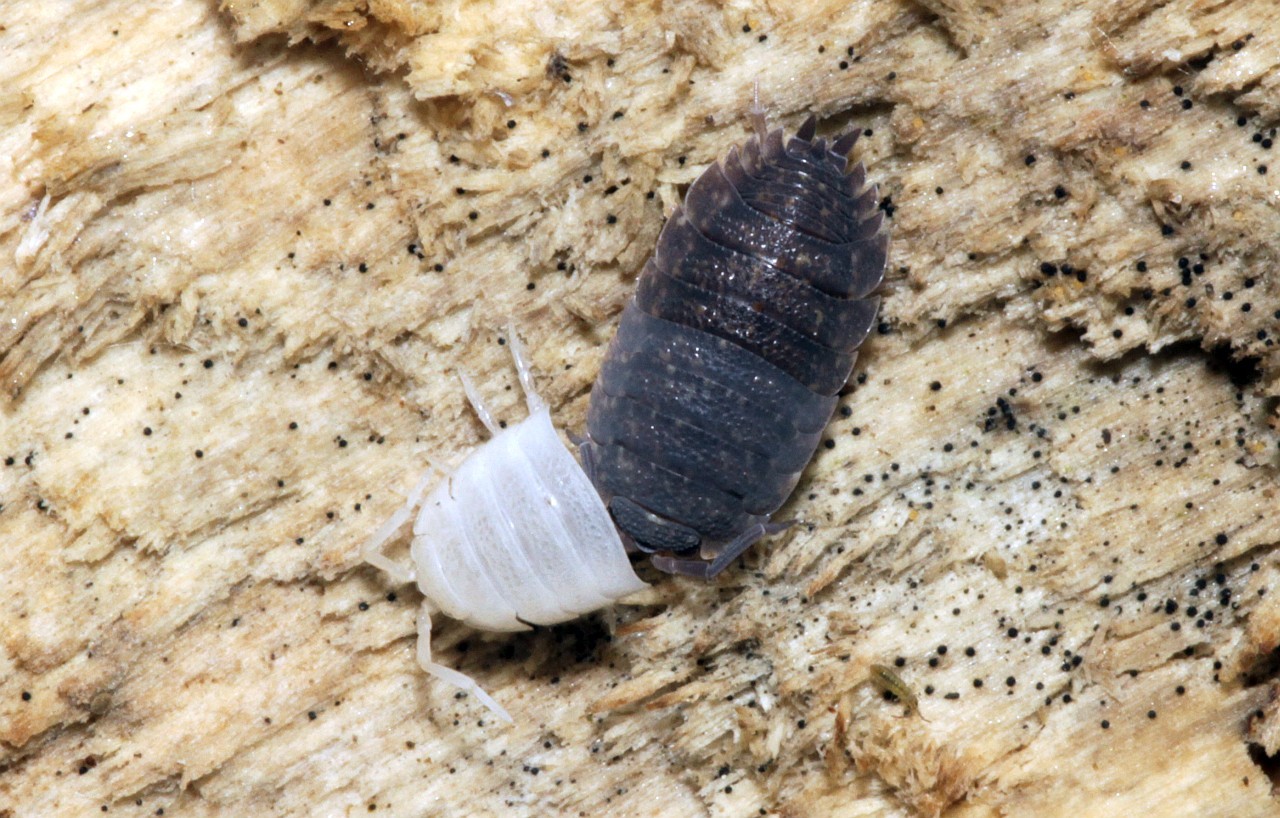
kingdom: Animalia
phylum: Arthropoda
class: Malacostraca
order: Isopoda
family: Porcellionidae
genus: Porcellio
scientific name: Porcellio scaber
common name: Common rough woodlouse
